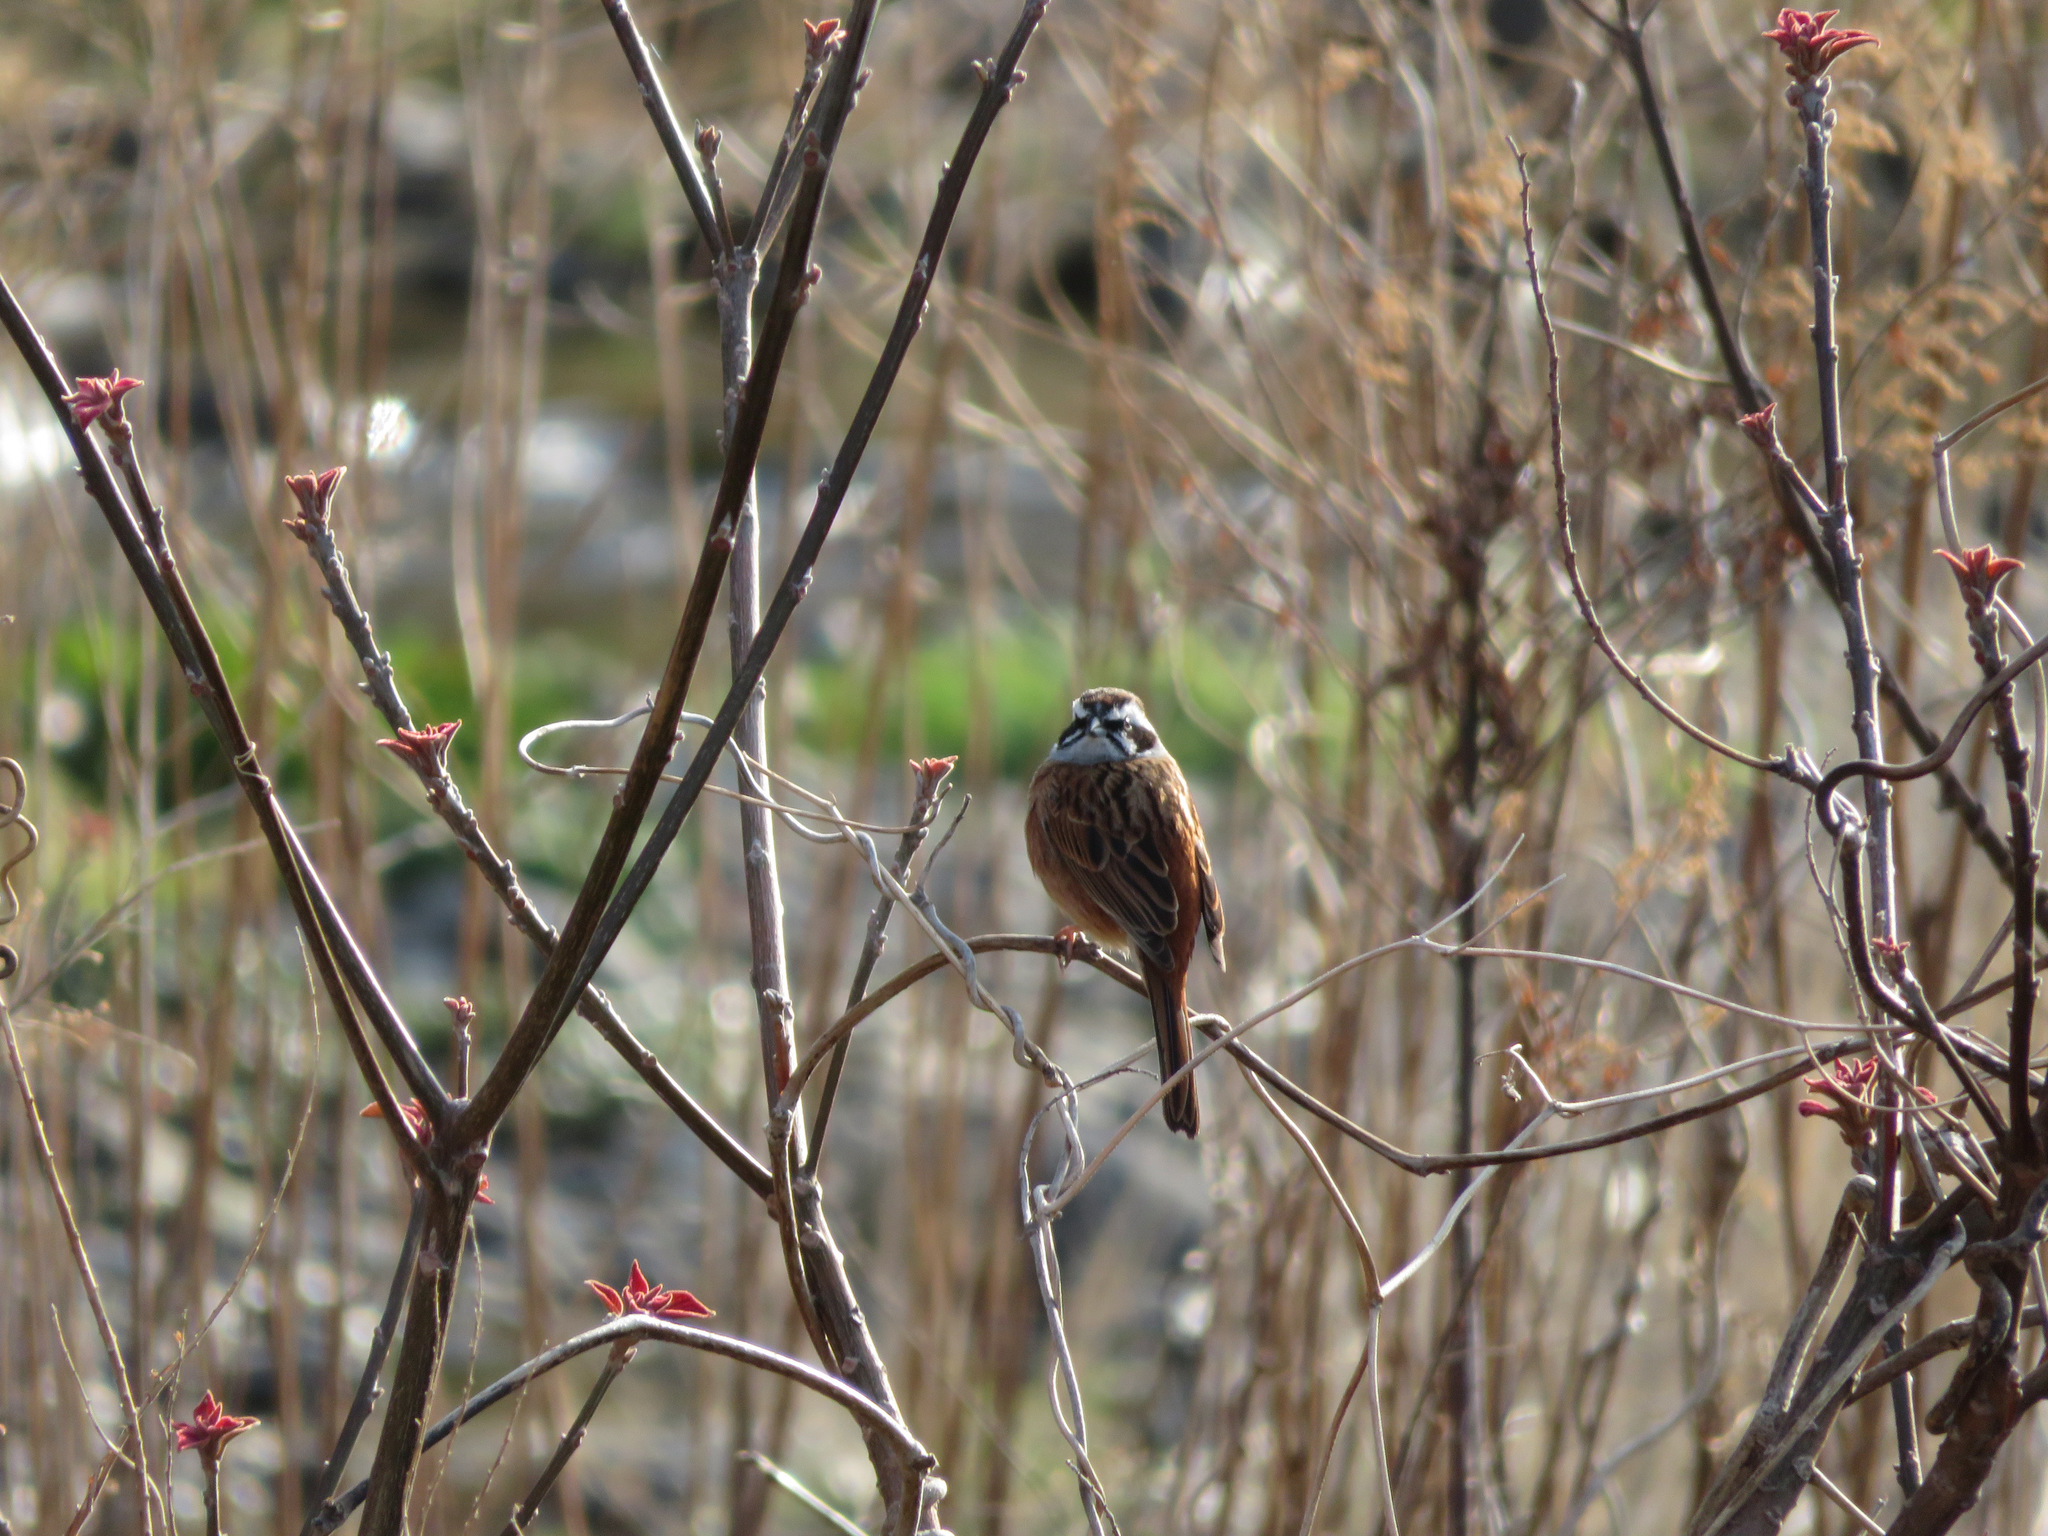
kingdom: Animalia
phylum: Chordata
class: Aves
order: Passeriformes
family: Emberizidae
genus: Emberiza
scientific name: Emberiza cioides
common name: Meadow bunting
